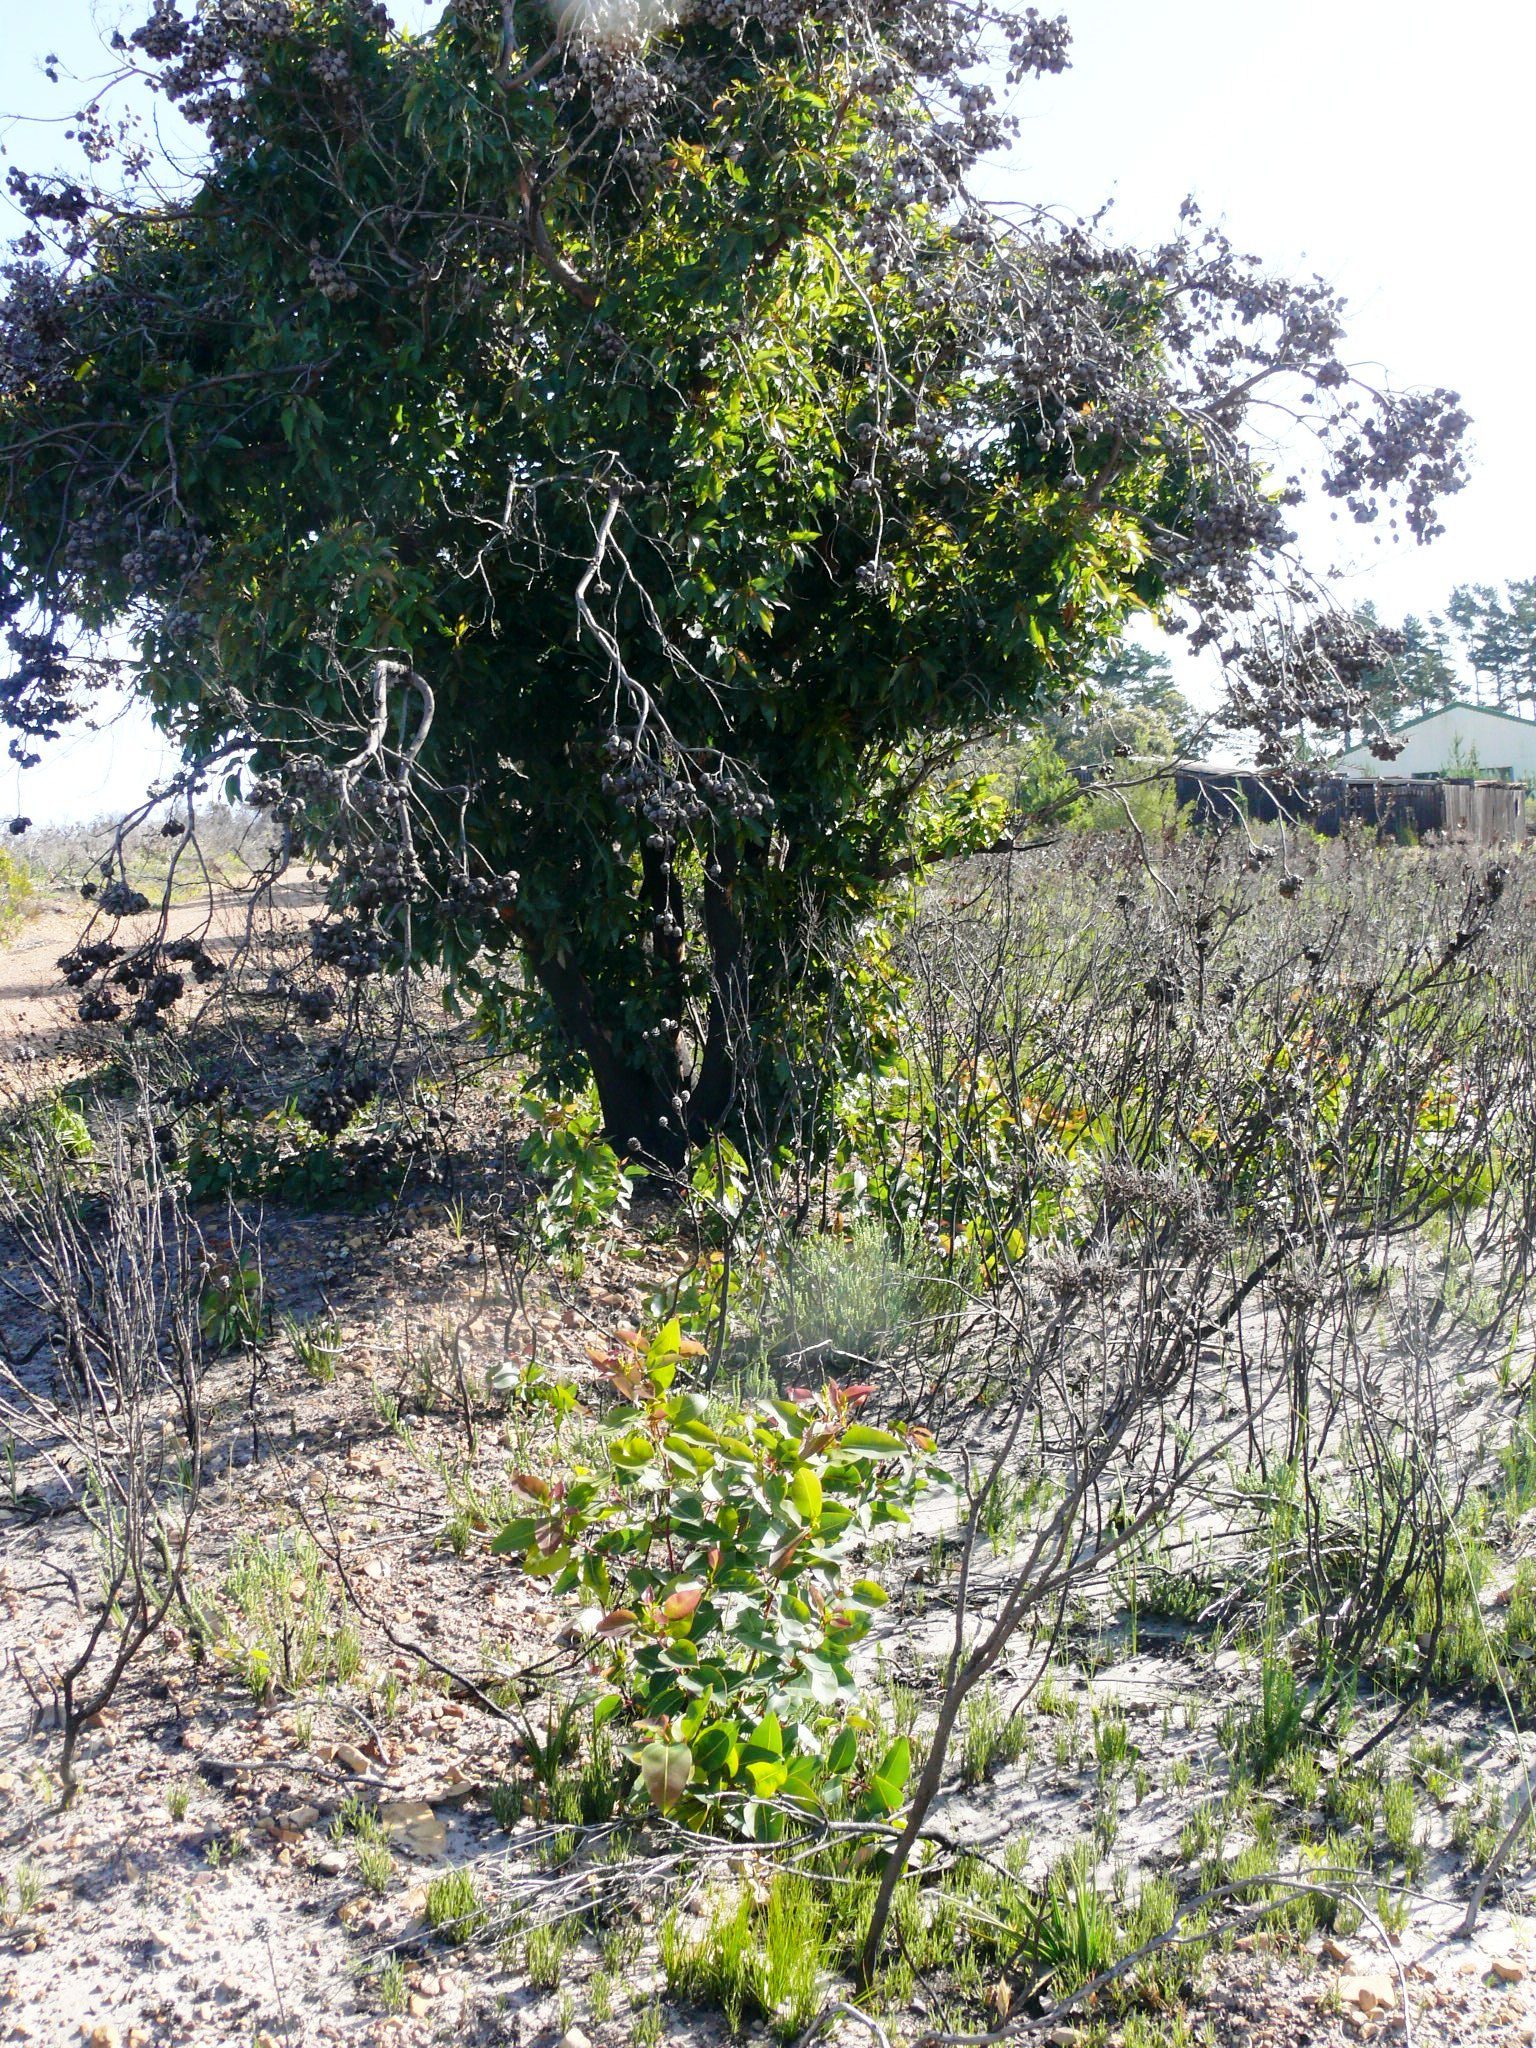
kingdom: Plantae
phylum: Tracheophyta
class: Magnoliopsida
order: Myrtales
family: Myrtaceae
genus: Corymbia
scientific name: Corymbia ficifolia
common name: Redflower gum
